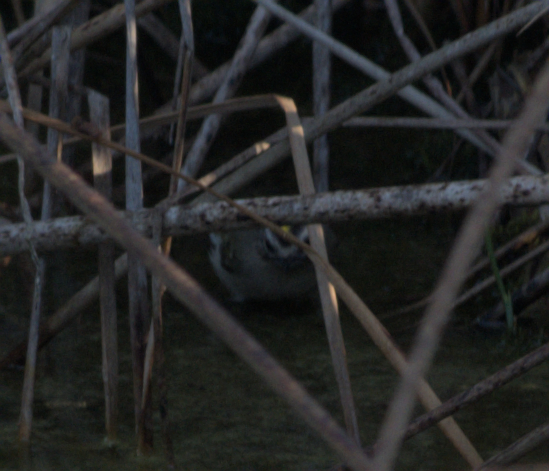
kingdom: Animalia
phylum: Chordata
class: Aves
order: Passeriformes
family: Regulidae
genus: Regulus
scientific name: Regulus satrapa
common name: Golden-crowned kinglet
